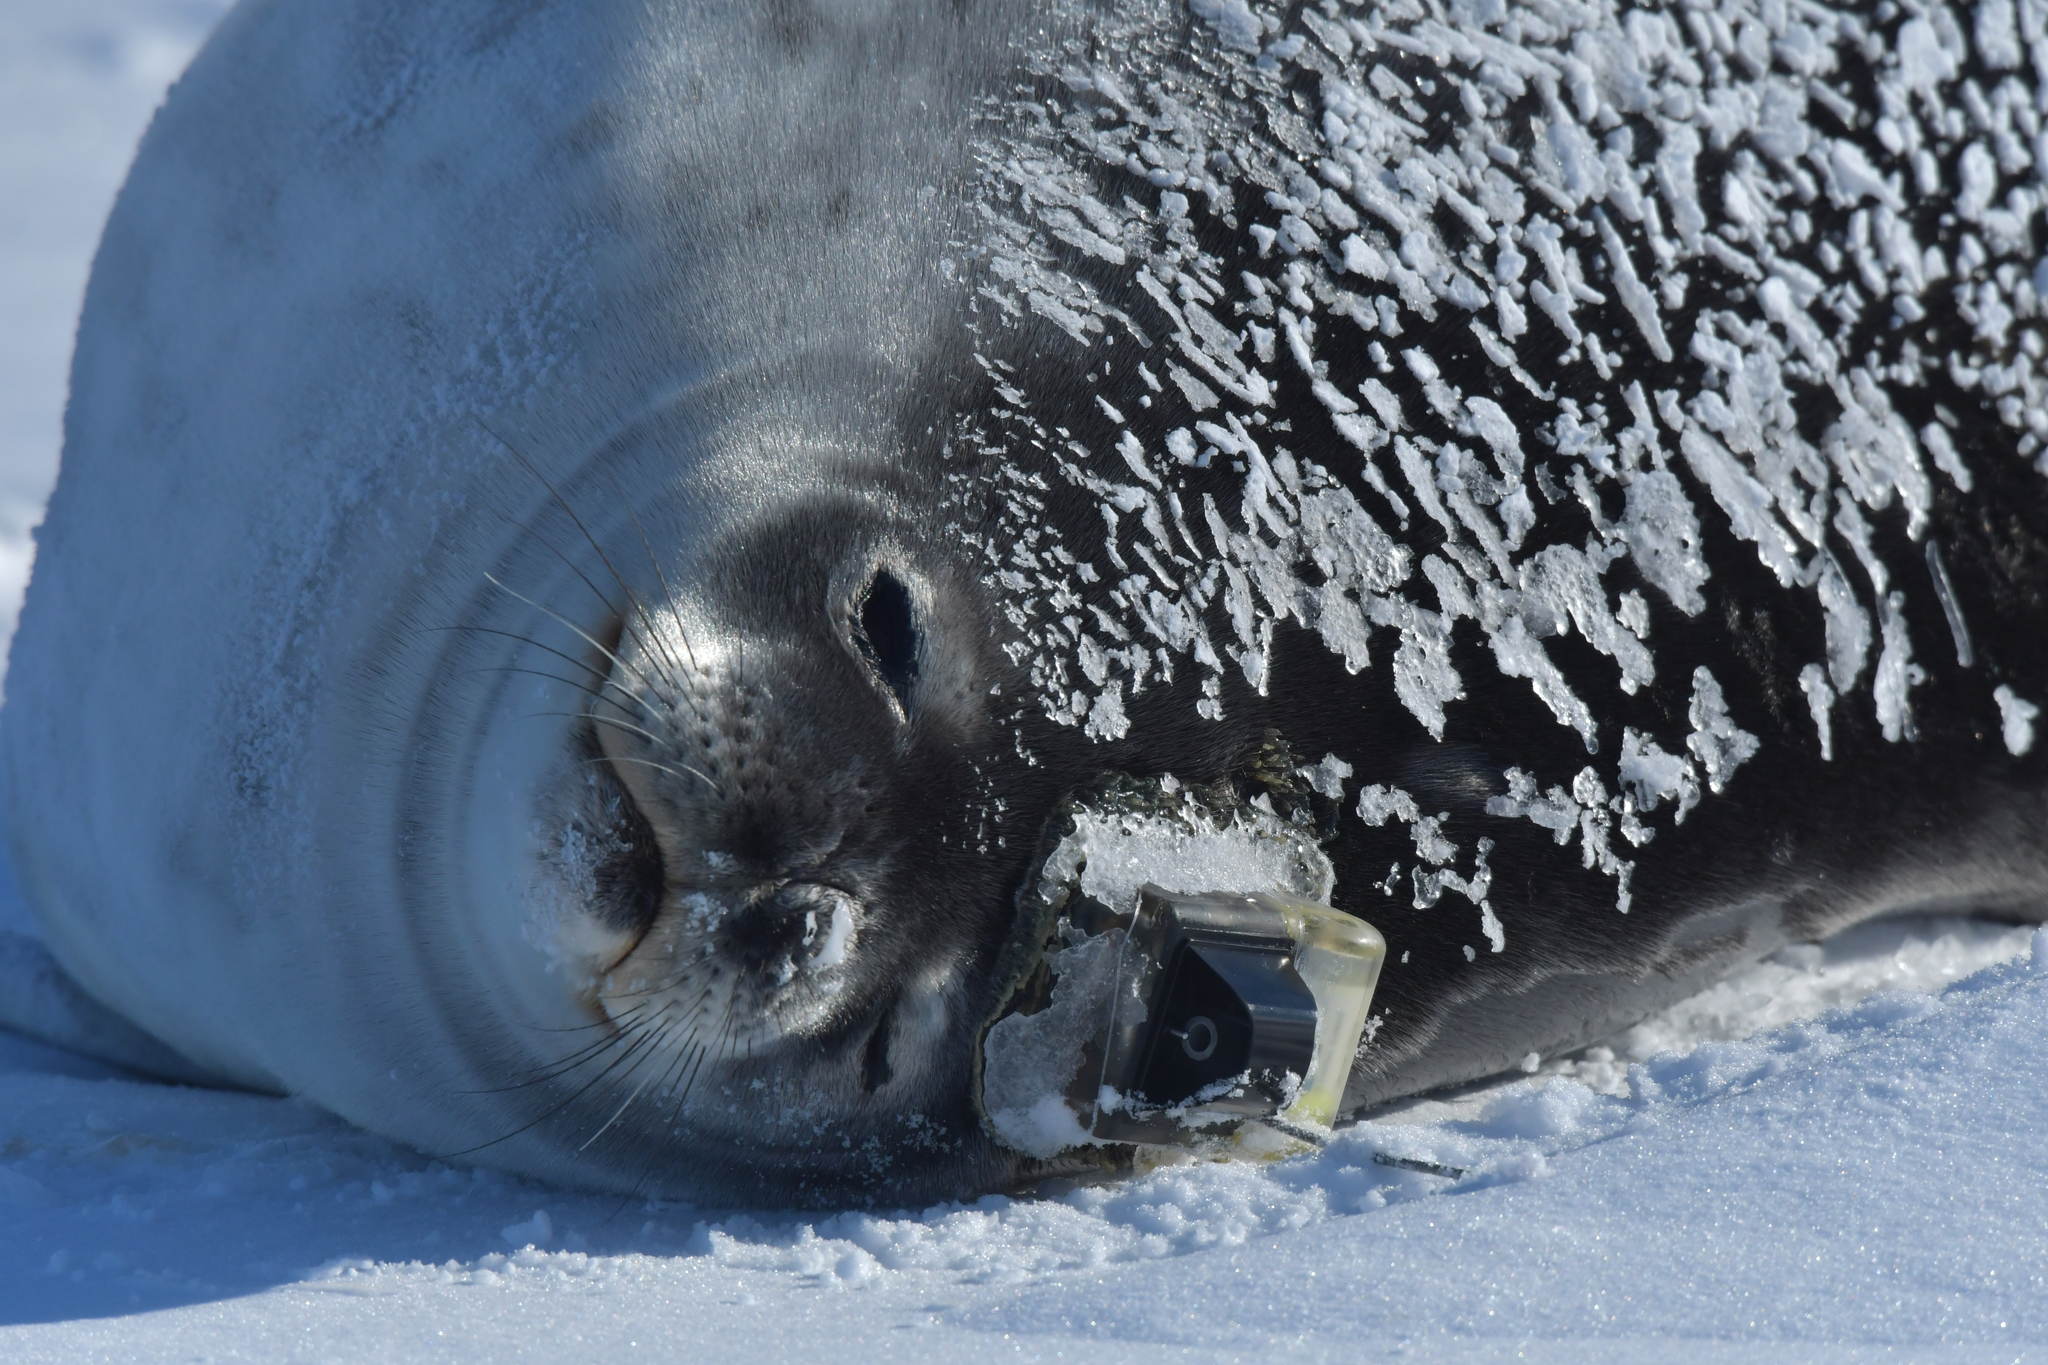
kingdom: Animalia
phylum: Chordata
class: Mammalia
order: Carnivora
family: Phocidae
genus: Leptonychotes
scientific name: Leptonychotes weddellii
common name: Weddell seal
